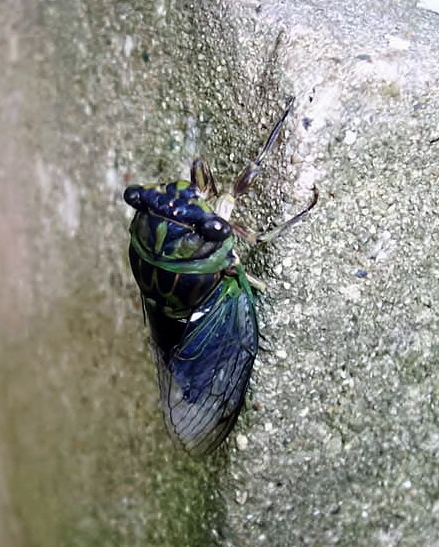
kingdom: Animalia
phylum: Arthropoda
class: Insecta
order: Hemiptera
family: Cicadidae
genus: Neotibicen
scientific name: Neotibicen canicularis
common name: God-day cicada
